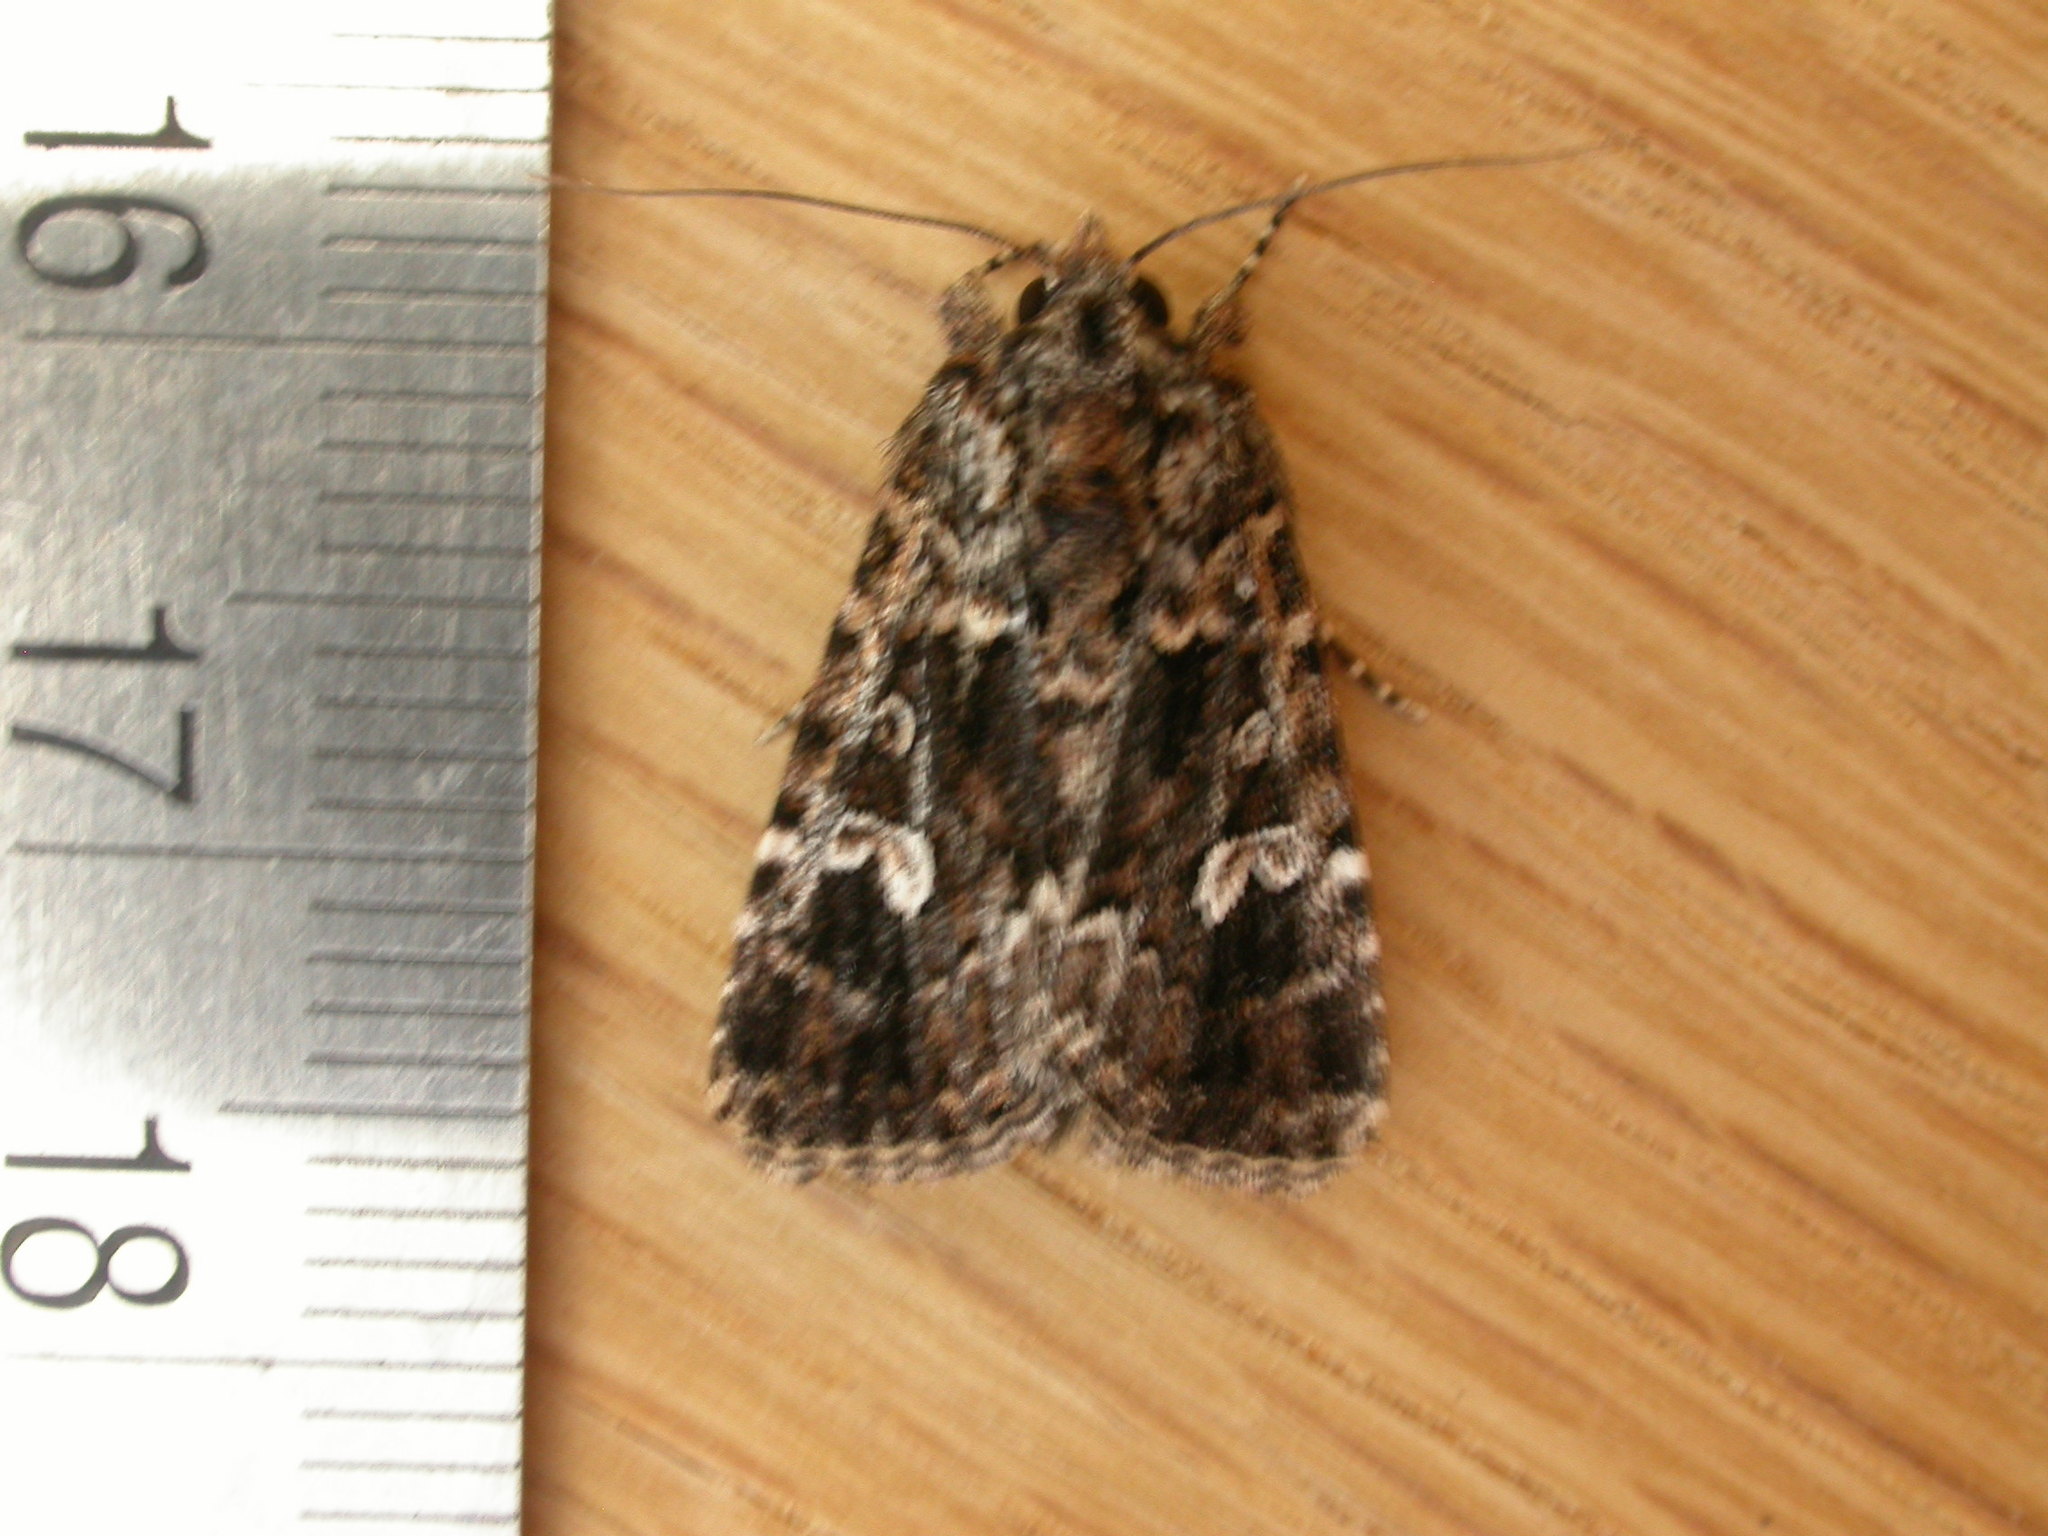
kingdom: Animalia
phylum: Arthropoda
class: Insecta
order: Lepidoptera
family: Noctuidae
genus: Ectopatria
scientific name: Ectopatria horologa
